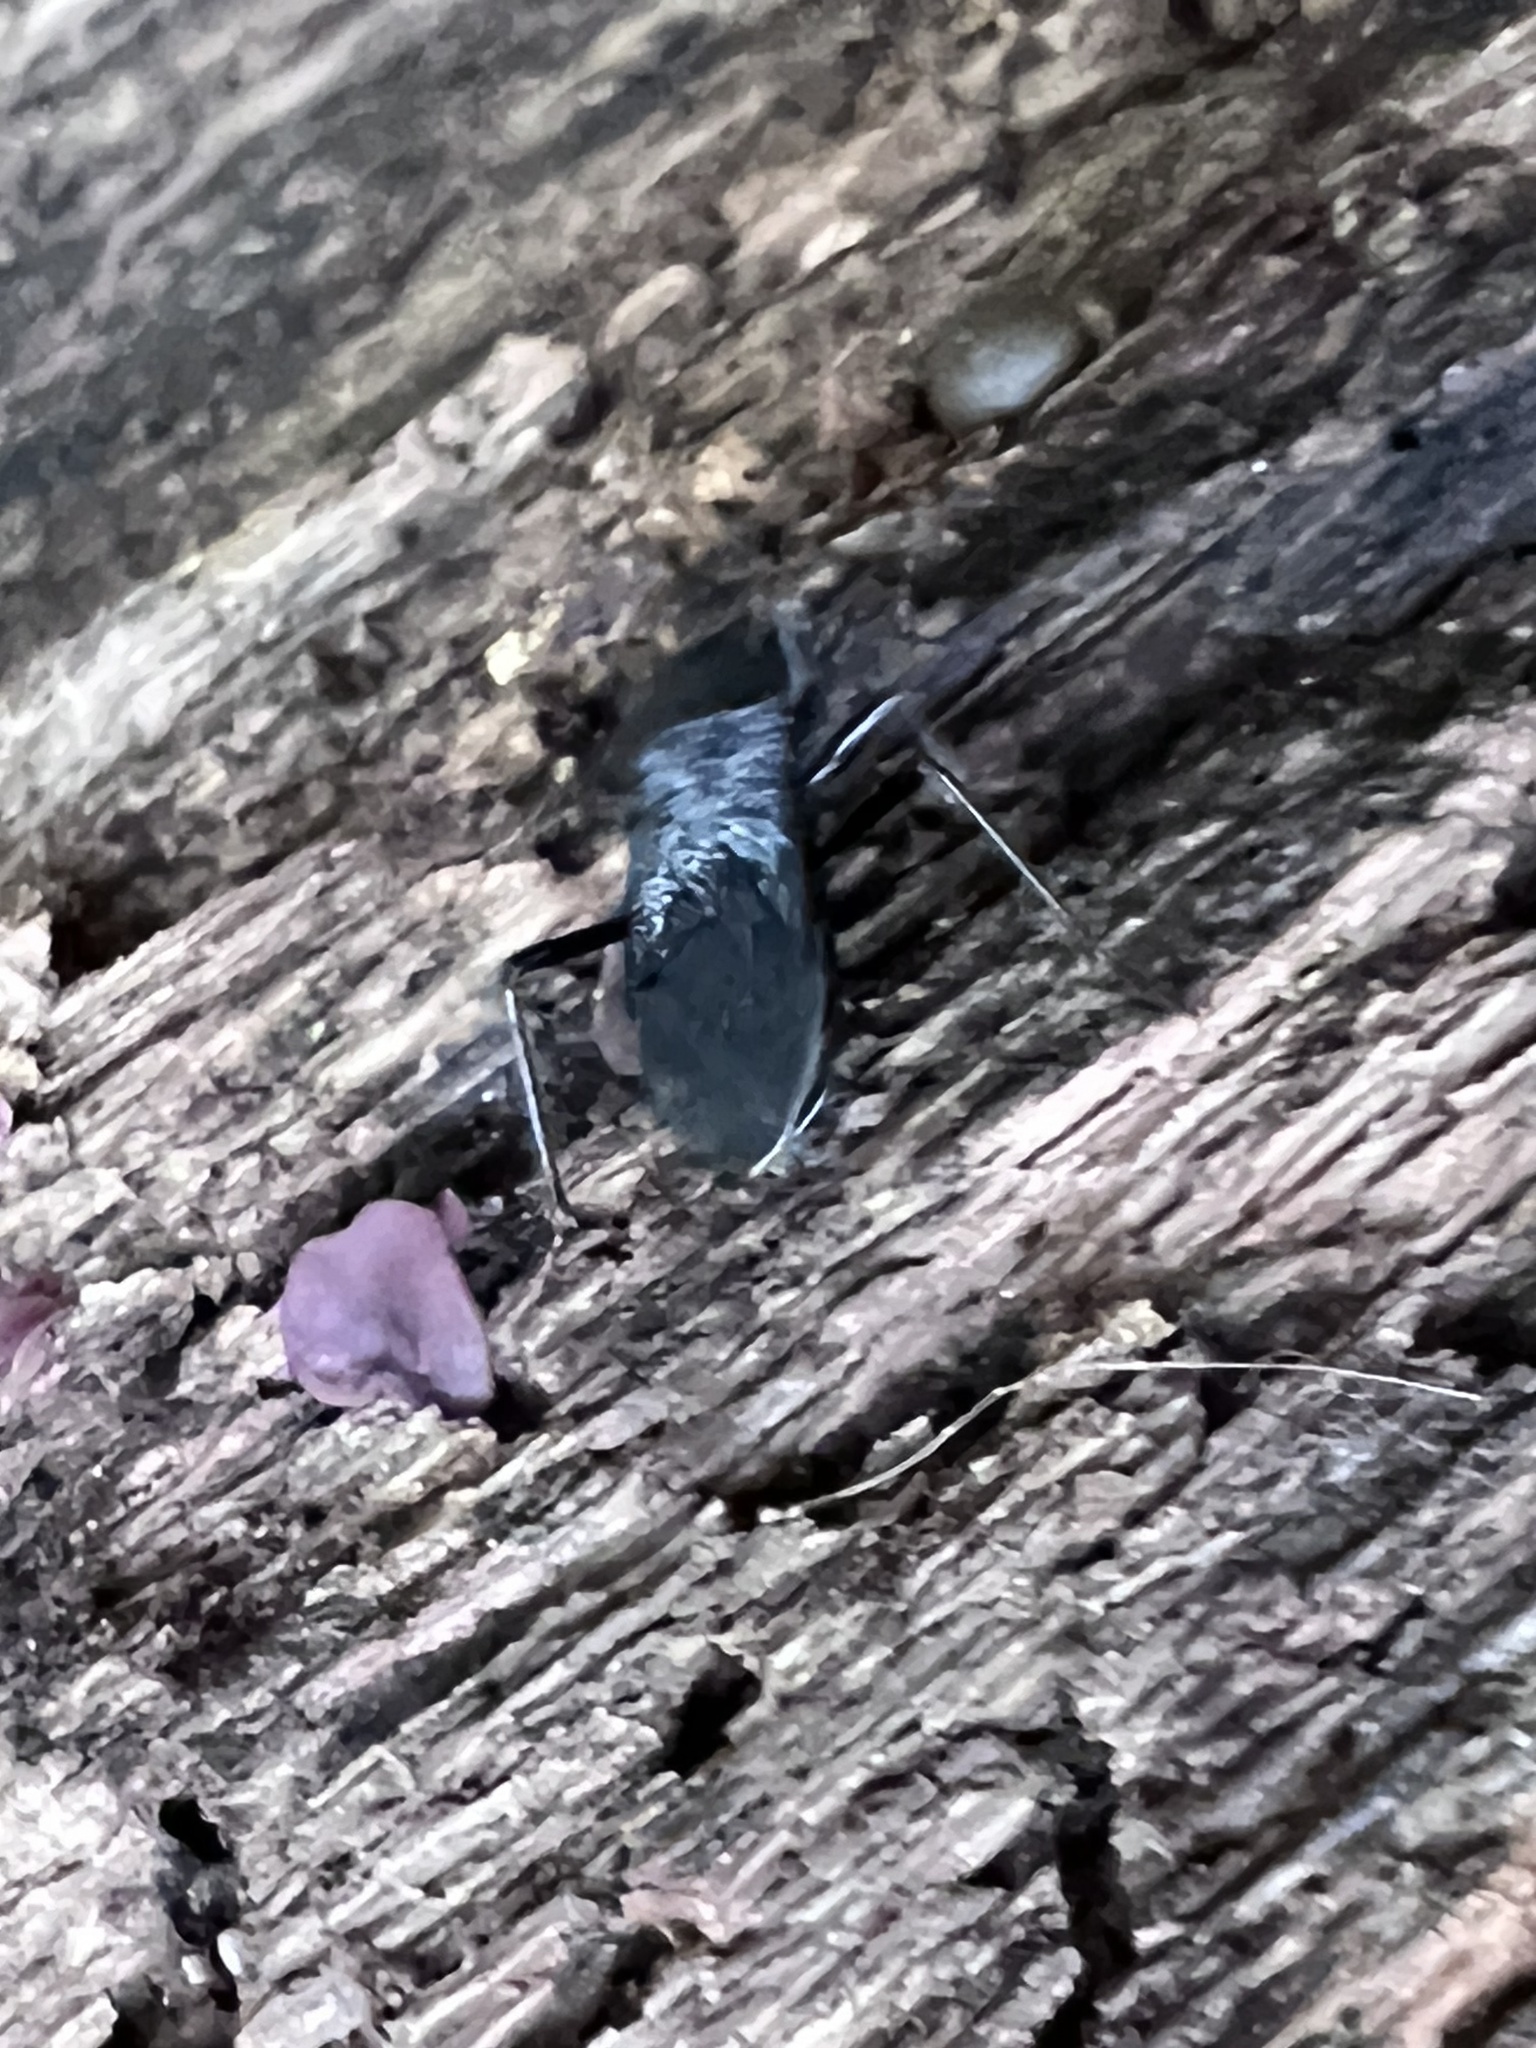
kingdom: Animalia
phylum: Arthropoda
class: Insecta
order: Hemiptera
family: Reduviidae
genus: Melanolestes
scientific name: Melanolestes picipes
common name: Assassin bug
